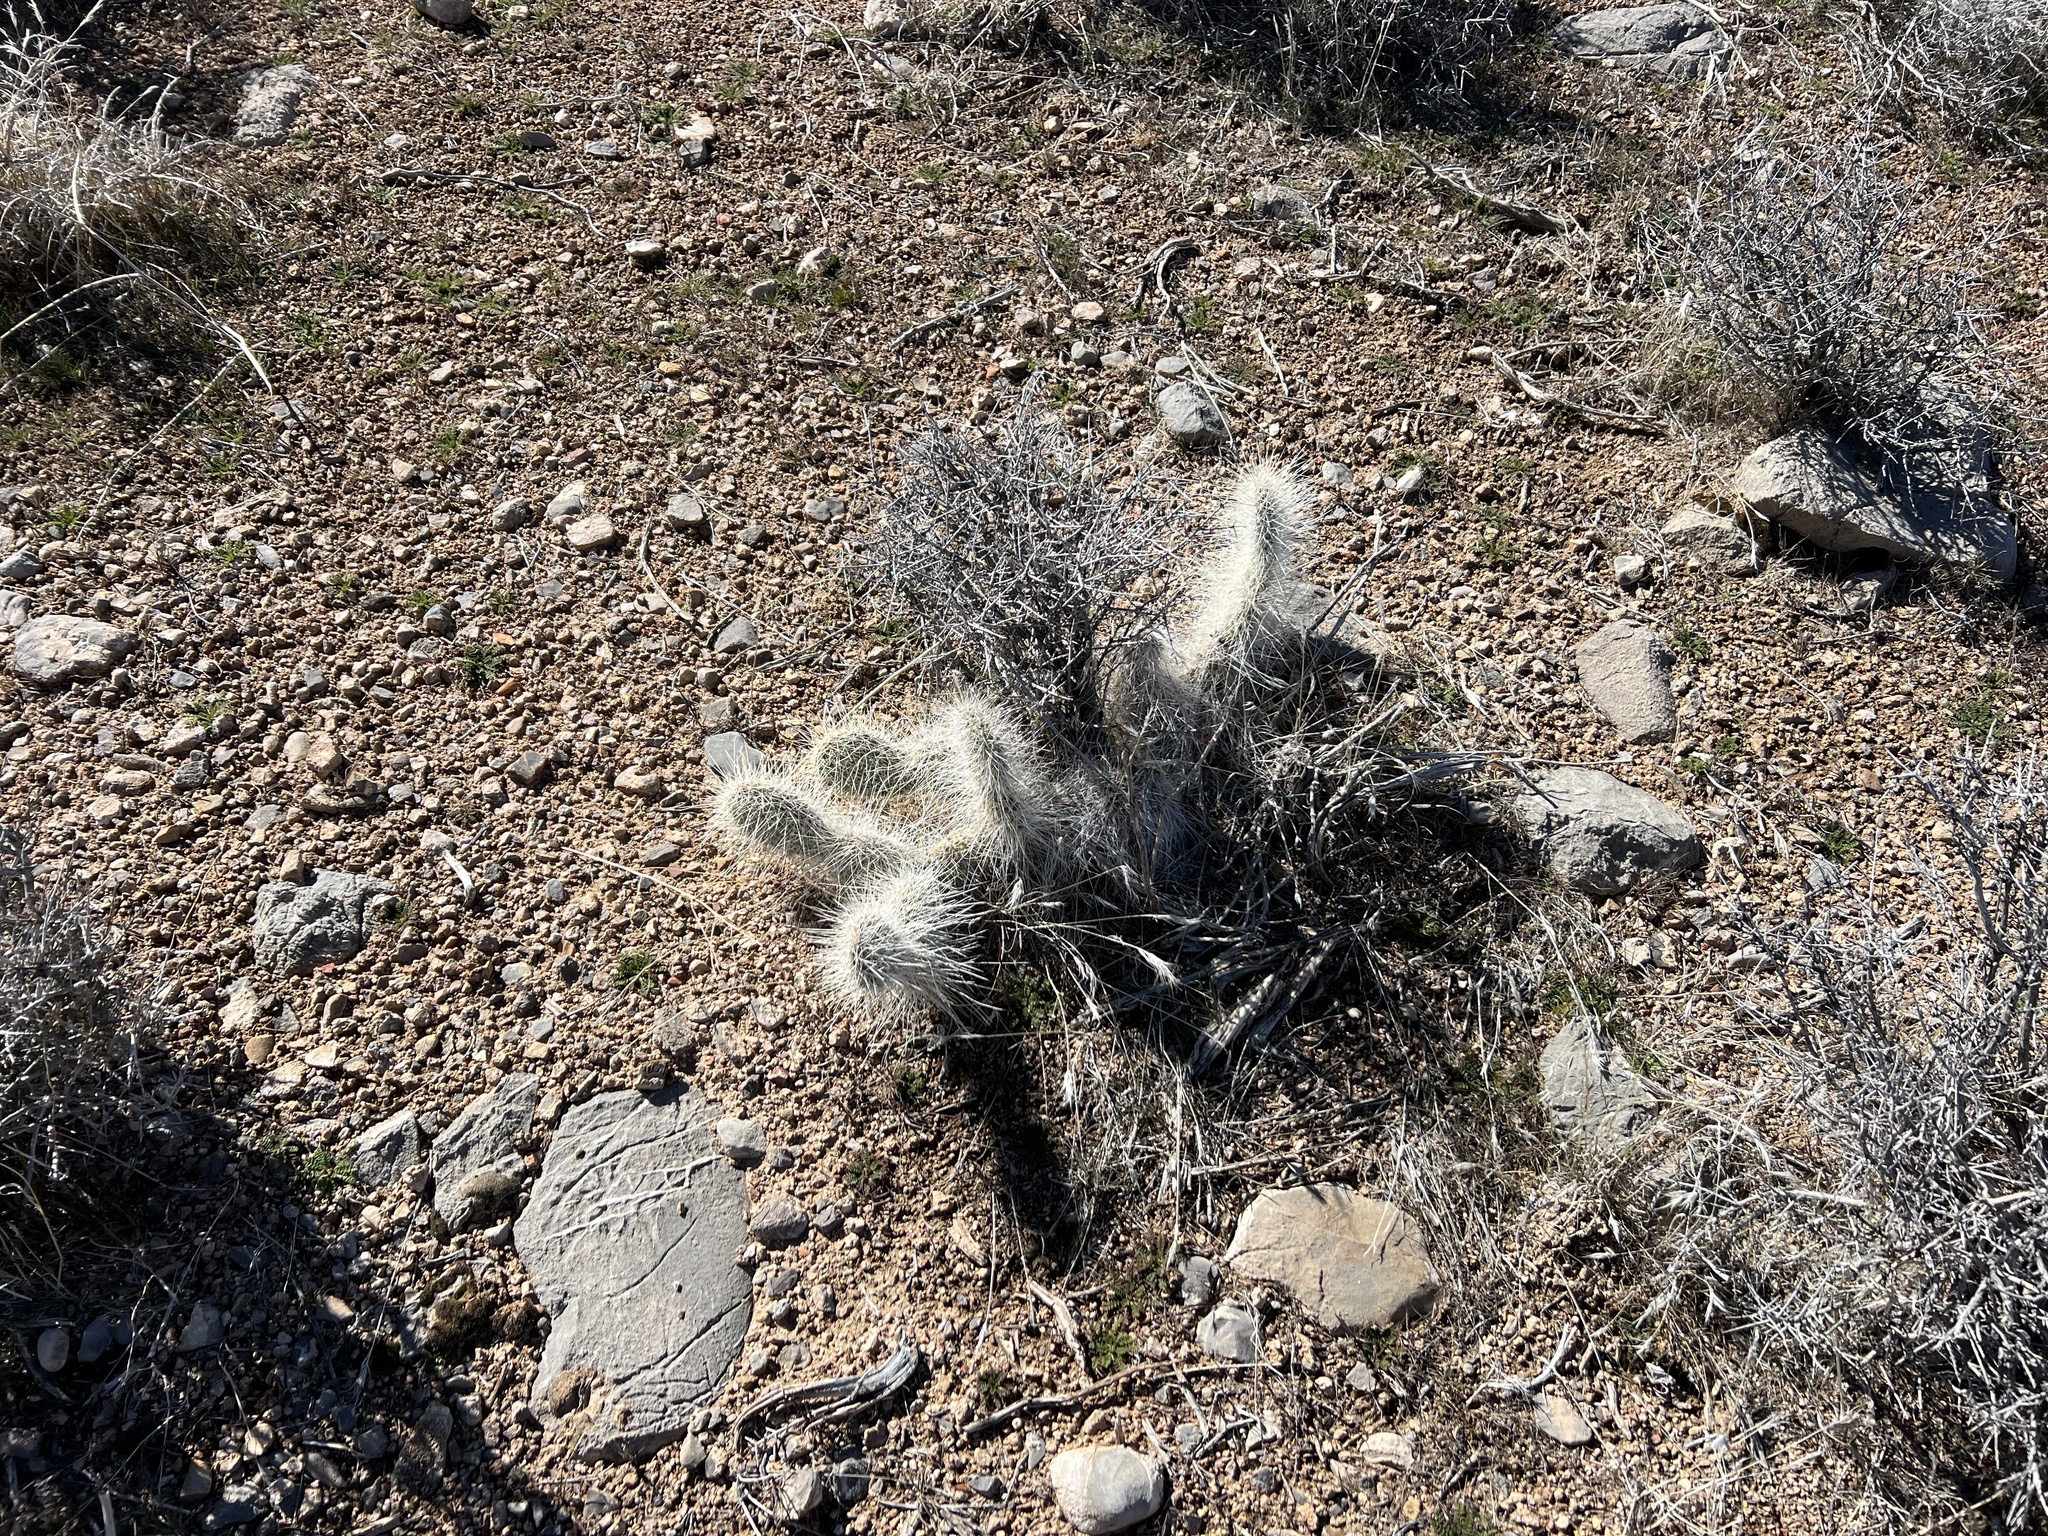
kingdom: Plantae
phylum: Tracheophyta
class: Magnoliopsida
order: Caryophyllales
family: Cactaceae
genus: Opuntia
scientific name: Opuntia polyacantha
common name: Plains prickly-pear
